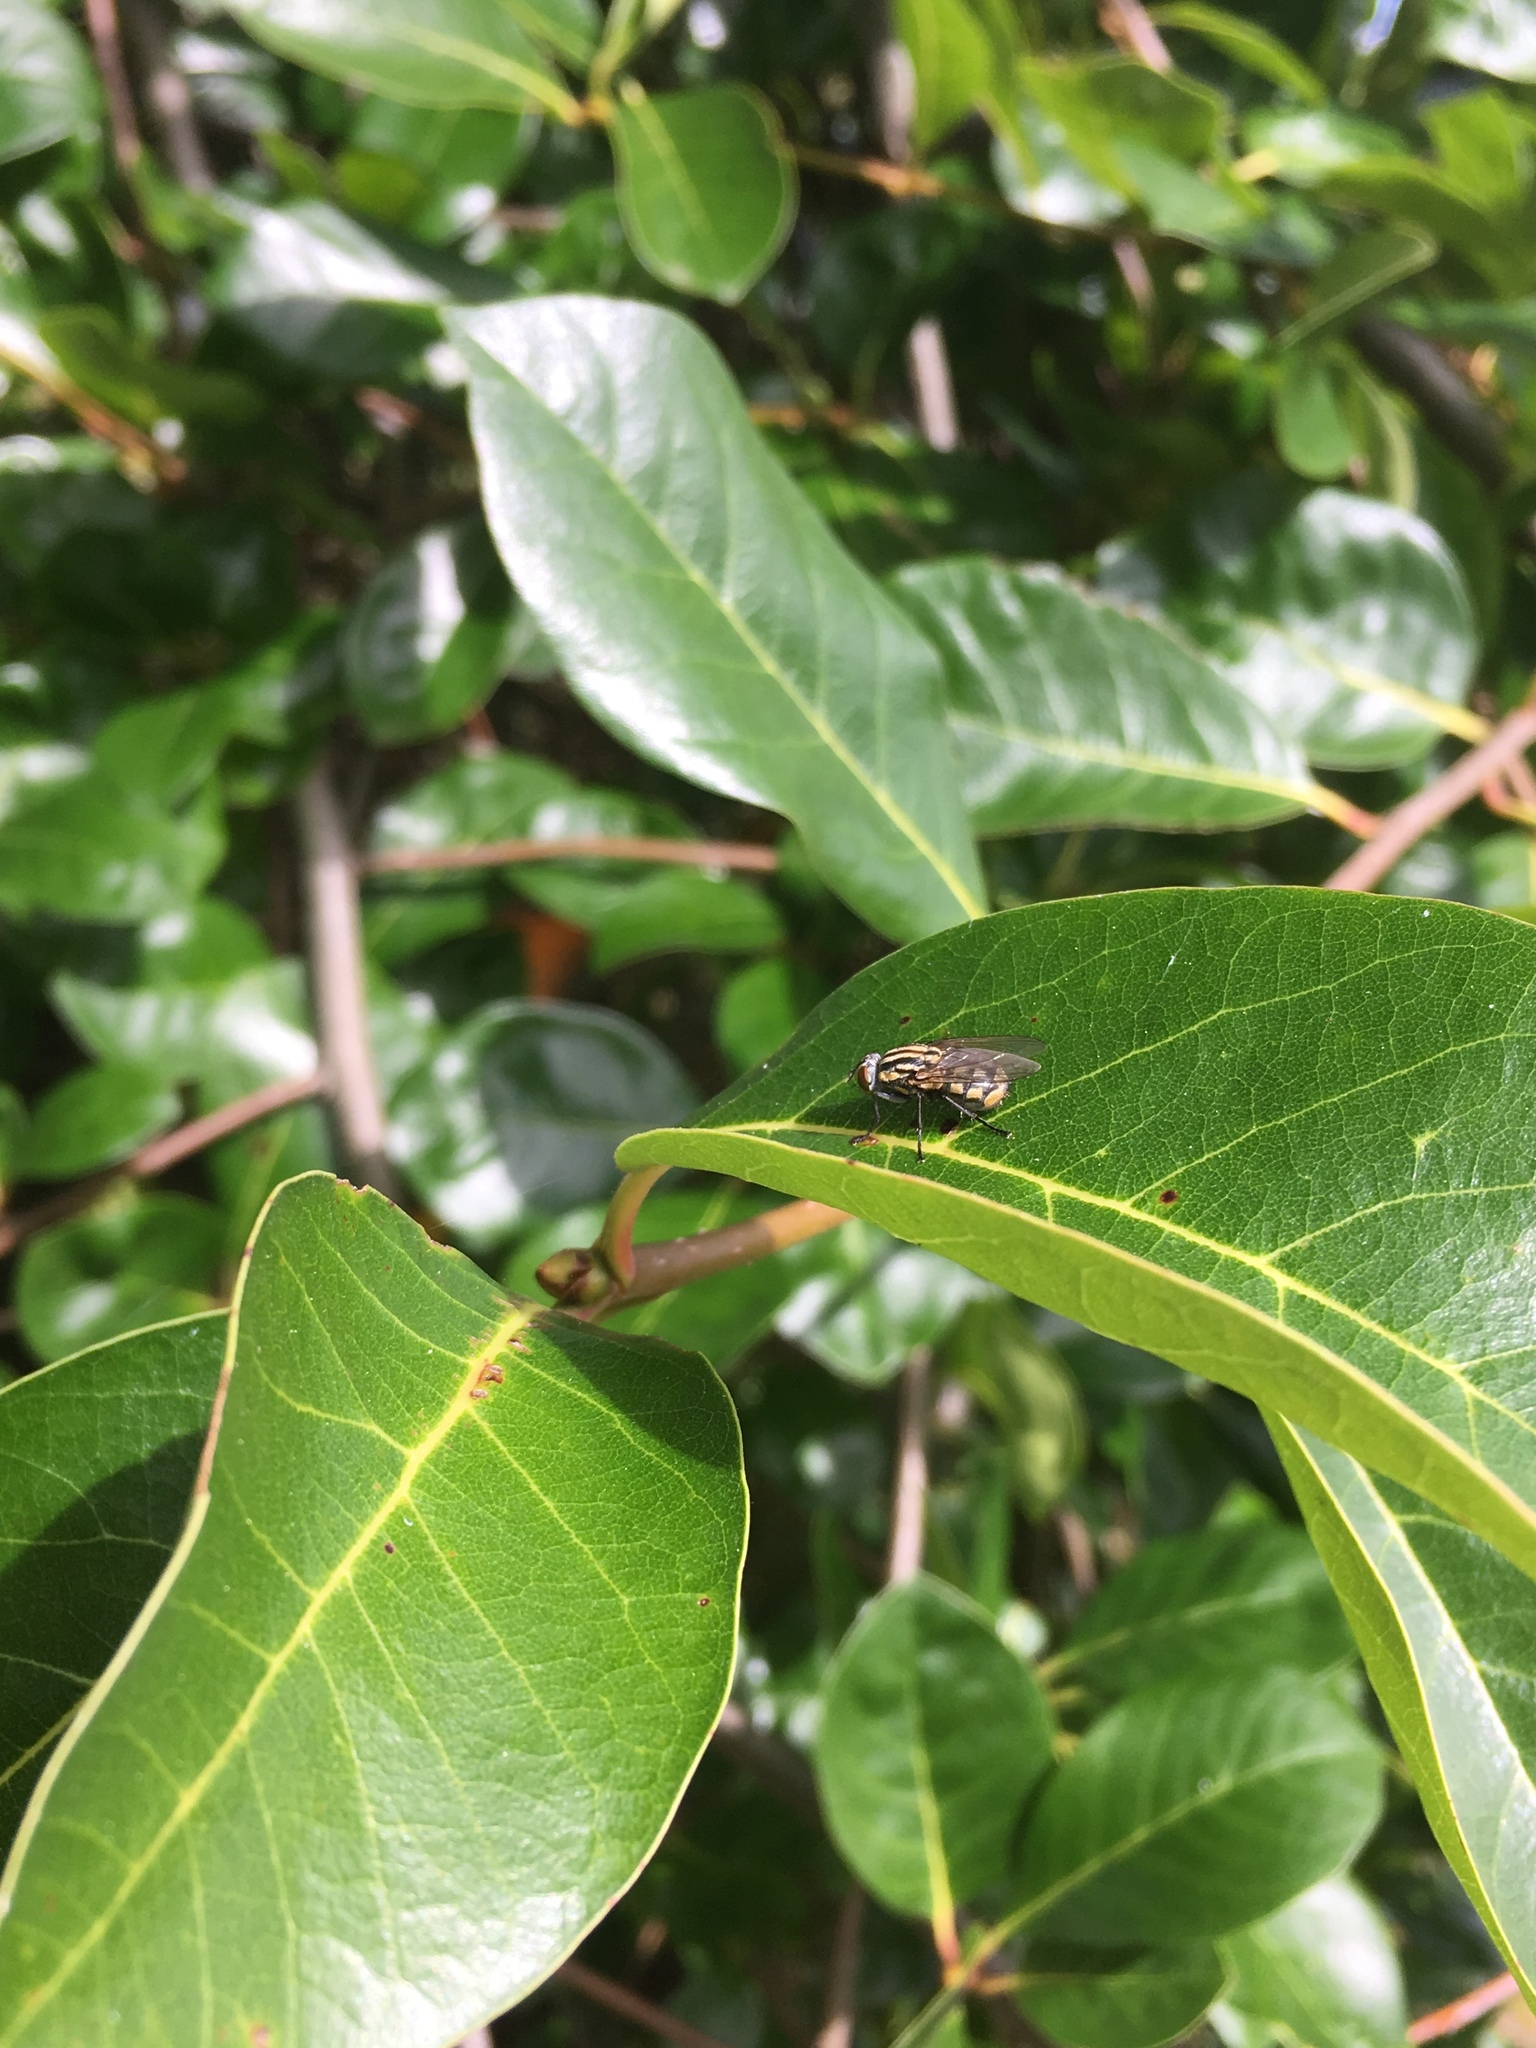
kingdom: Animalia
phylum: Arthropoda
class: Insecta
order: Diptera
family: Sarcophagidae
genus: Oxysarcodexia
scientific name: Oxysarcodexia varia
